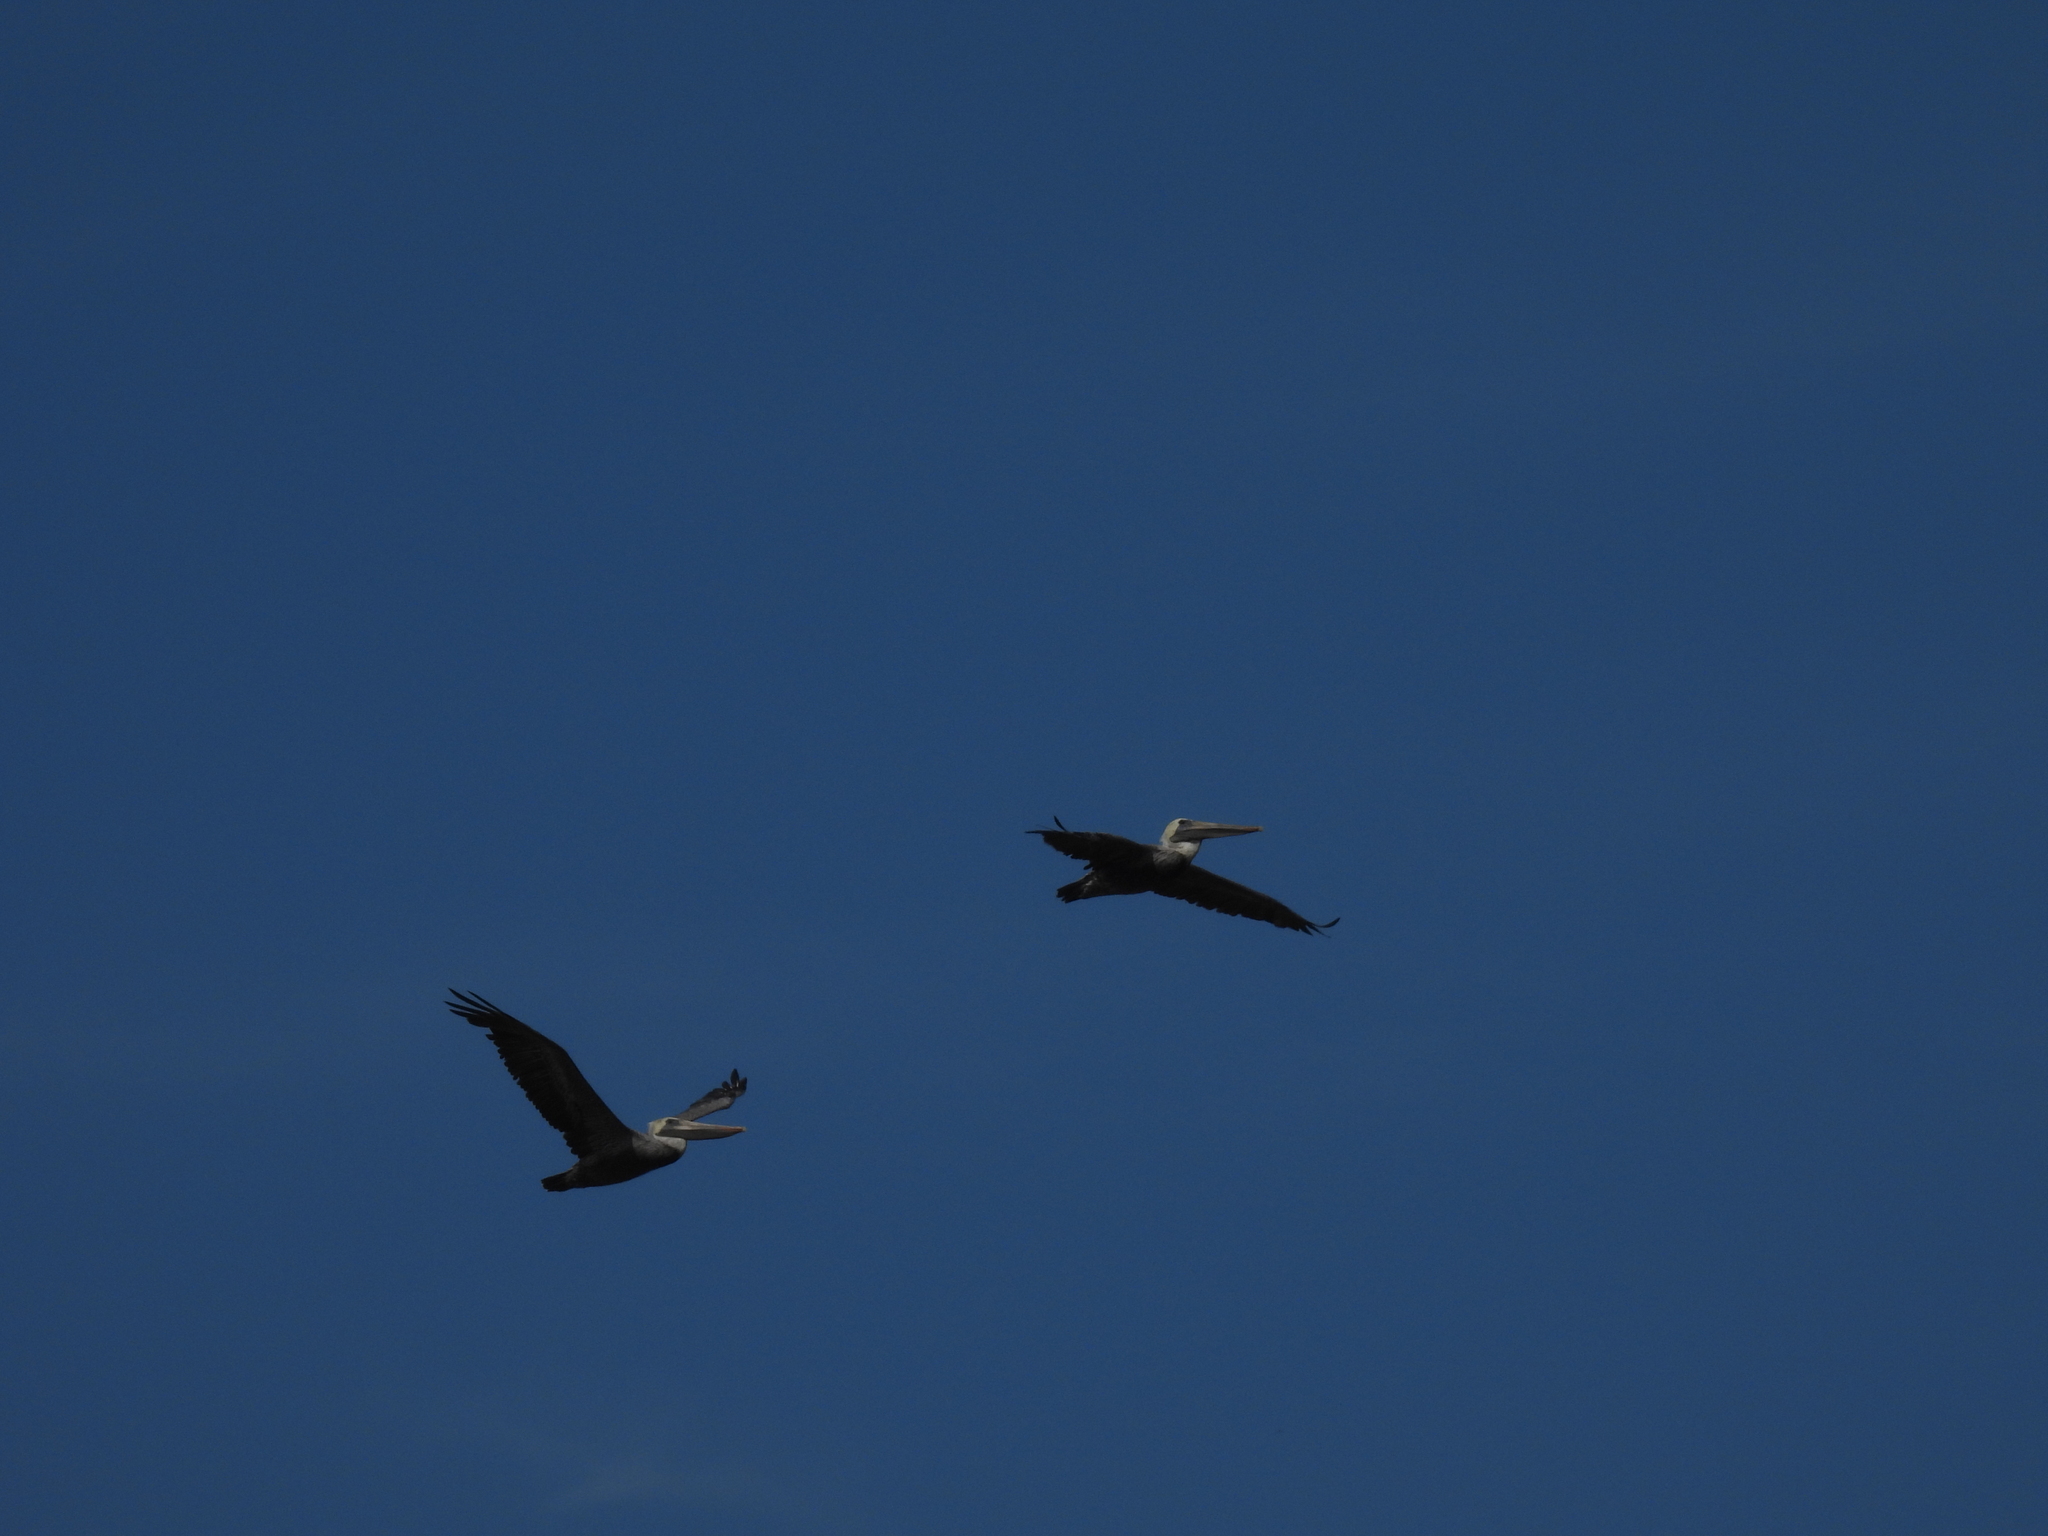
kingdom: Animalia
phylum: Chordata
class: Aves
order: Pelecaniformes
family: Pelecanidae
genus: Pelecanus
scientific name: Pelecanus occidentalis
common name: Brown pelican
